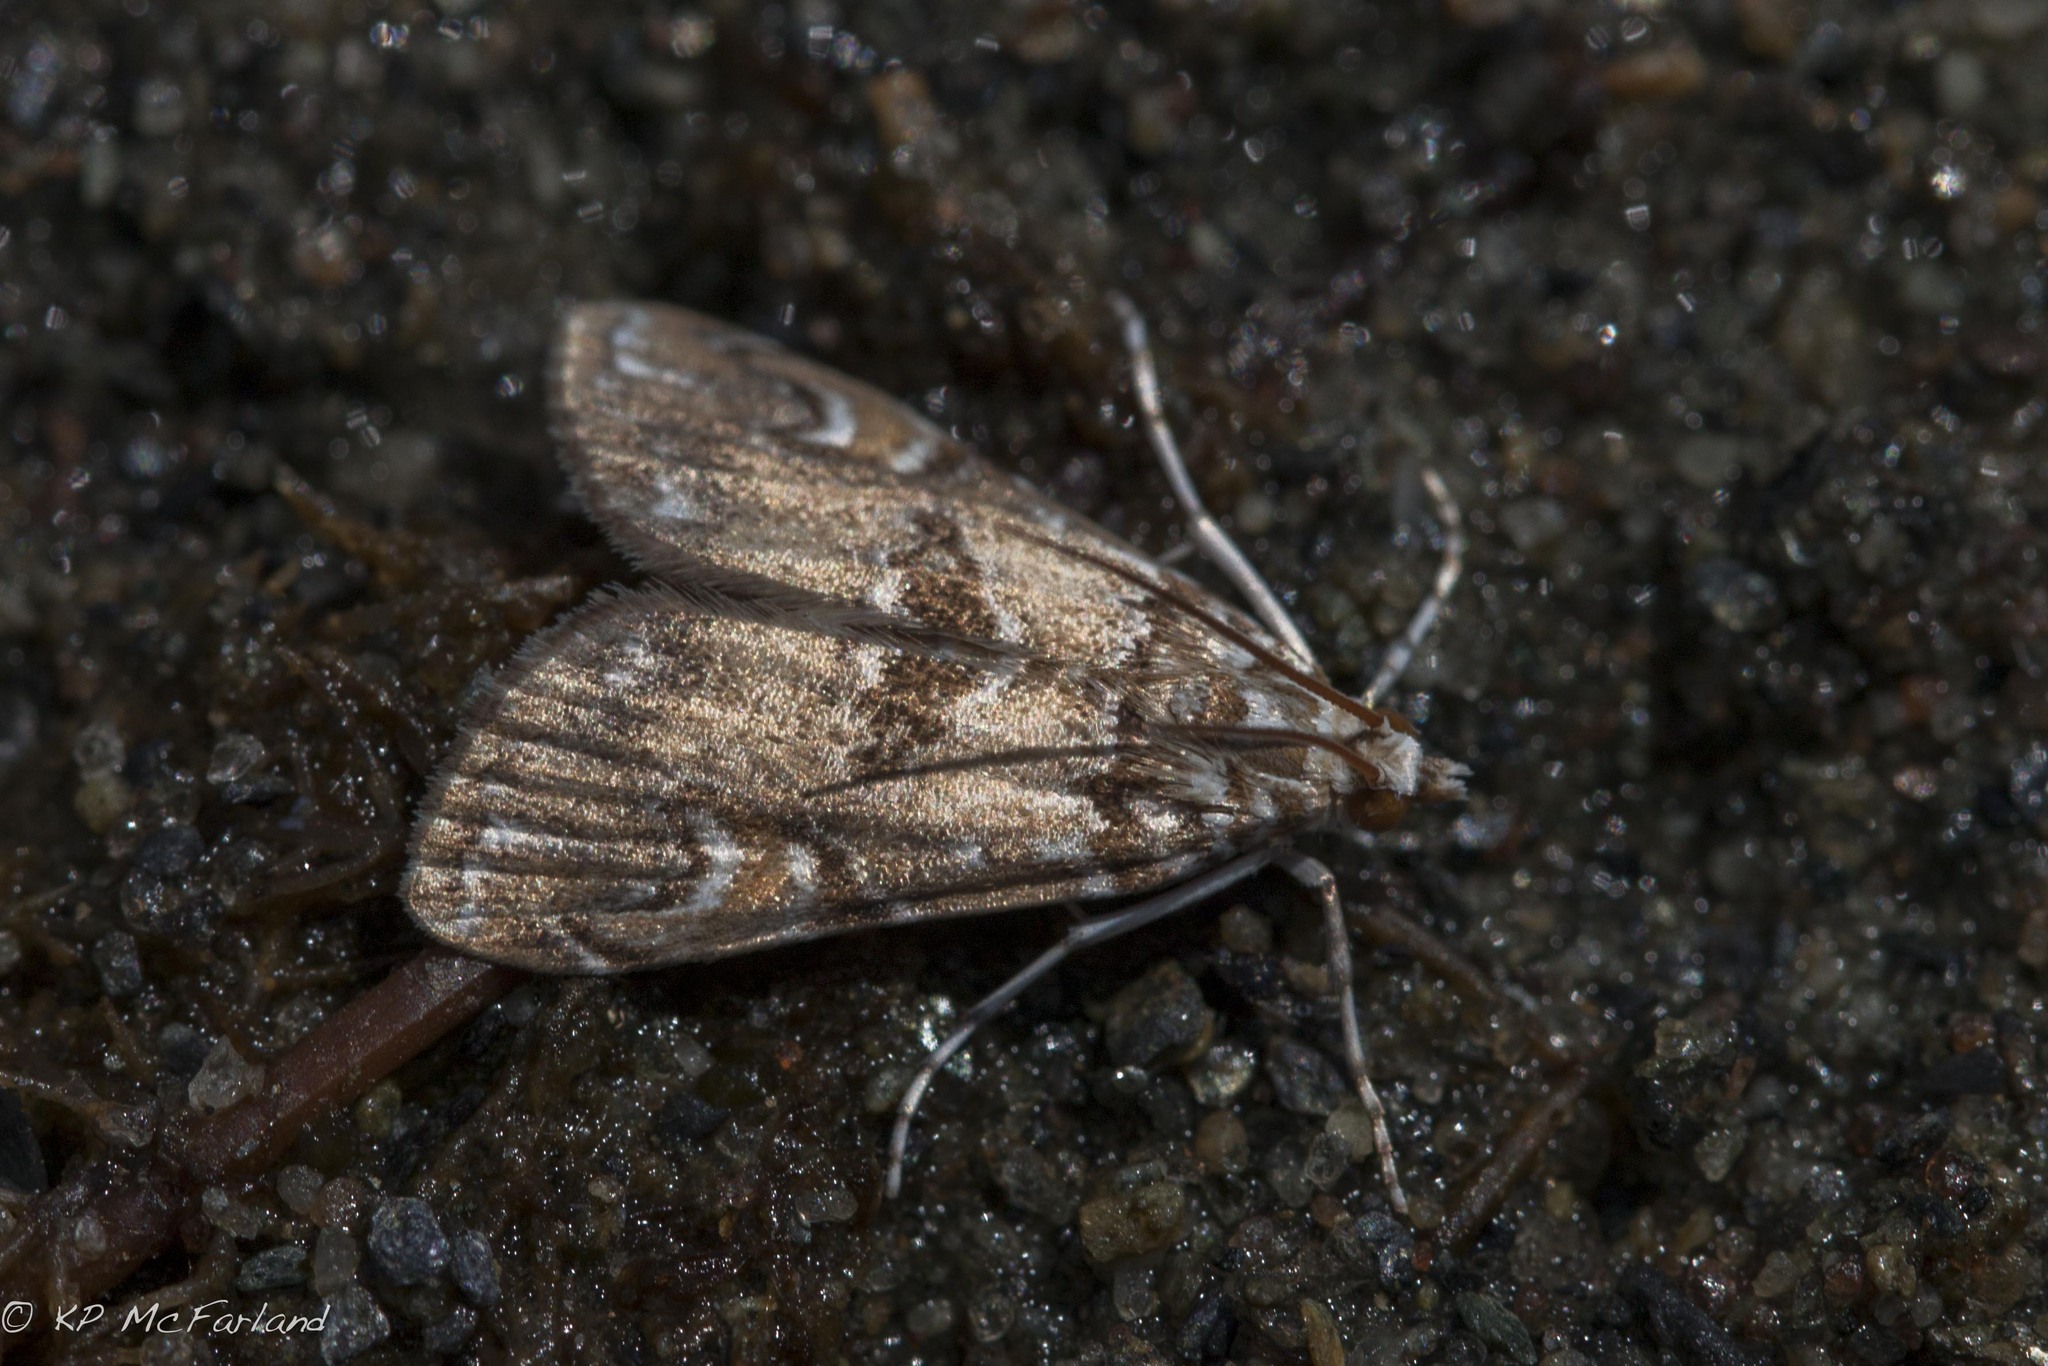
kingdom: Animalia
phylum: Arthropoda
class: Insecta
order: Lepidoptera
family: Crambidae
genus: Elophila
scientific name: Elophila gyralis
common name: Waterlily borer moth
